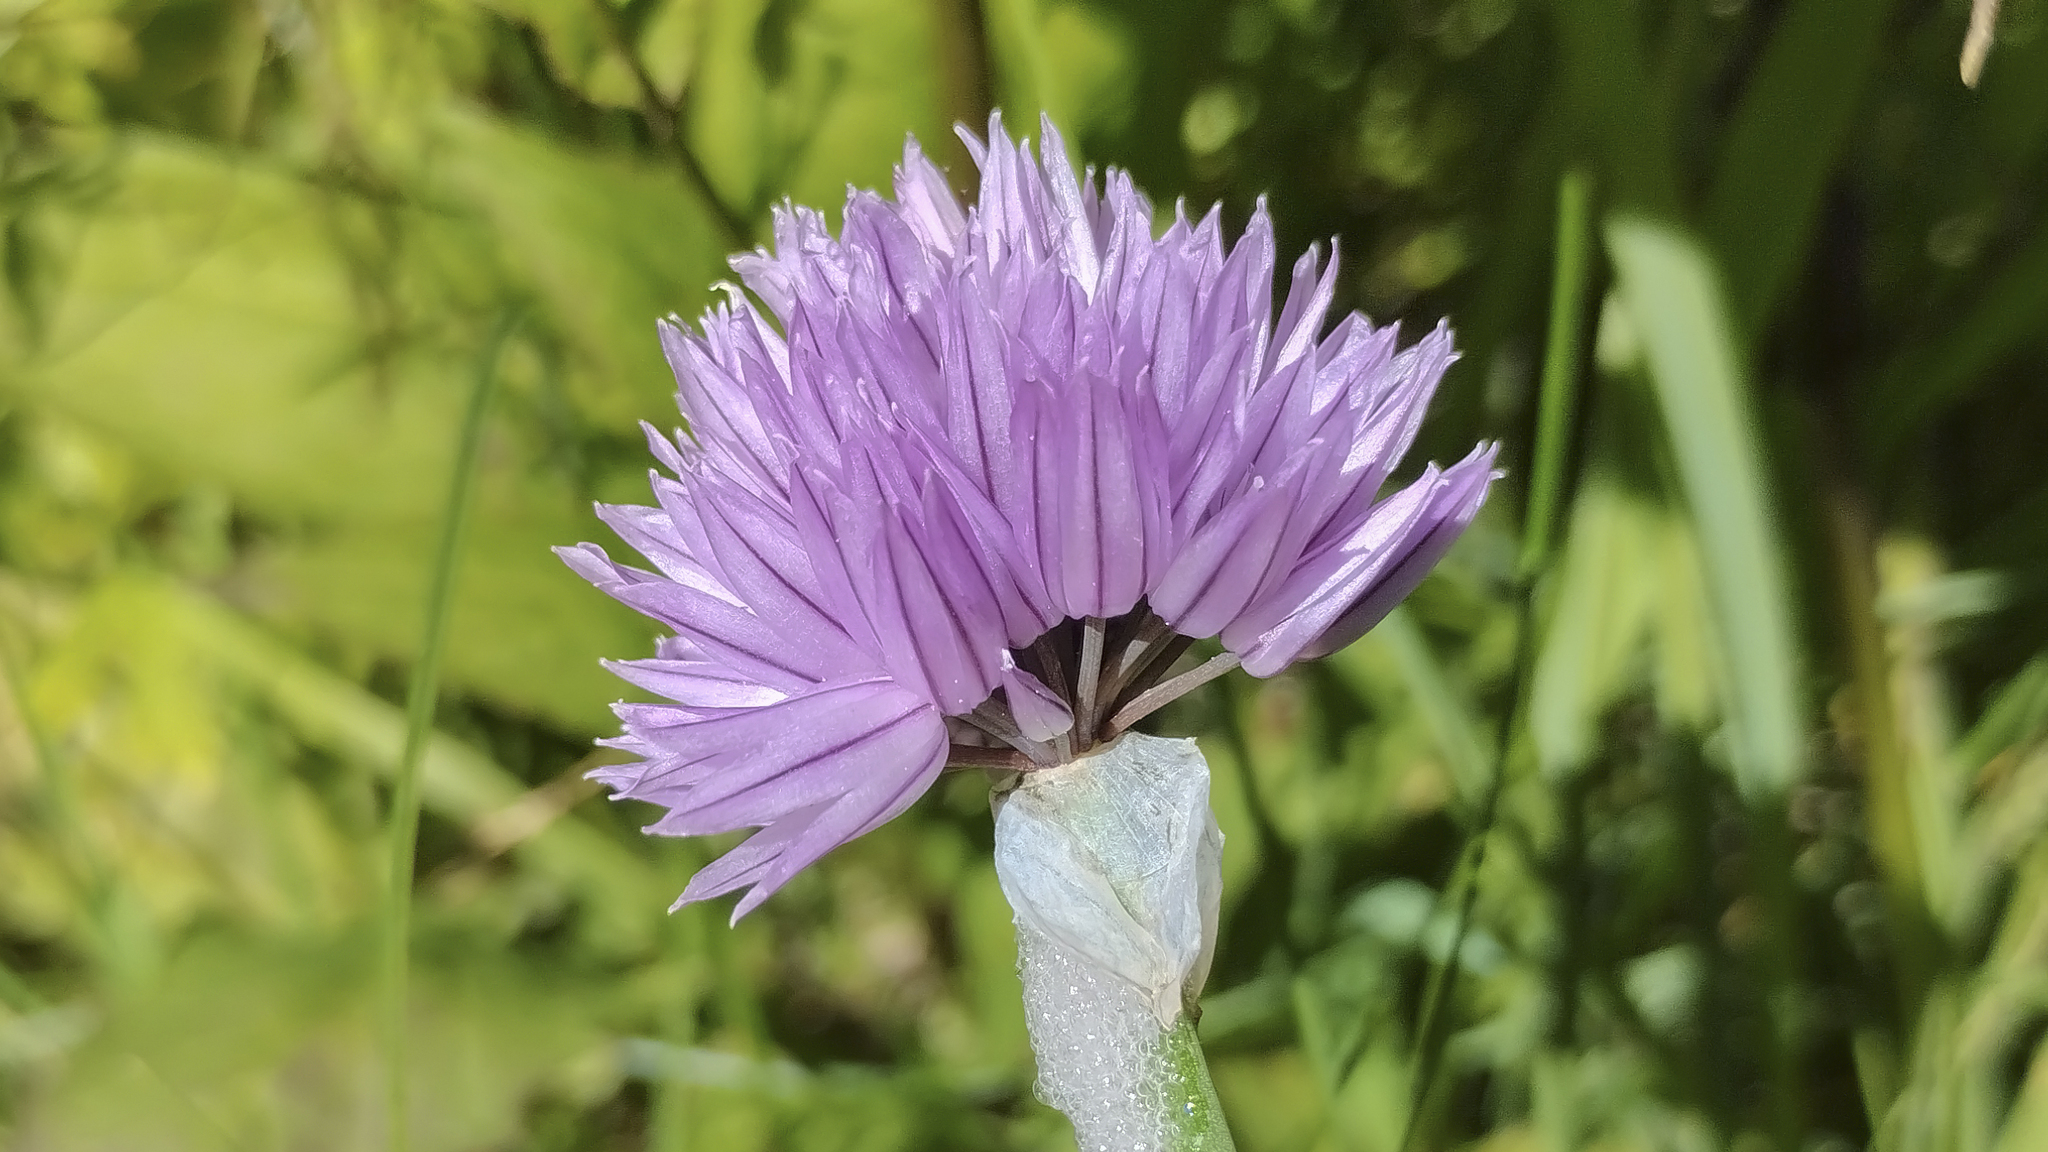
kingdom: Plantae
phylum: Tracheophyta
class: Liliopsida
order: Asparagales
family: Amaryllidaceae
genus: Allium
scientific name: Allium schoenoprasum
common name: Chives
